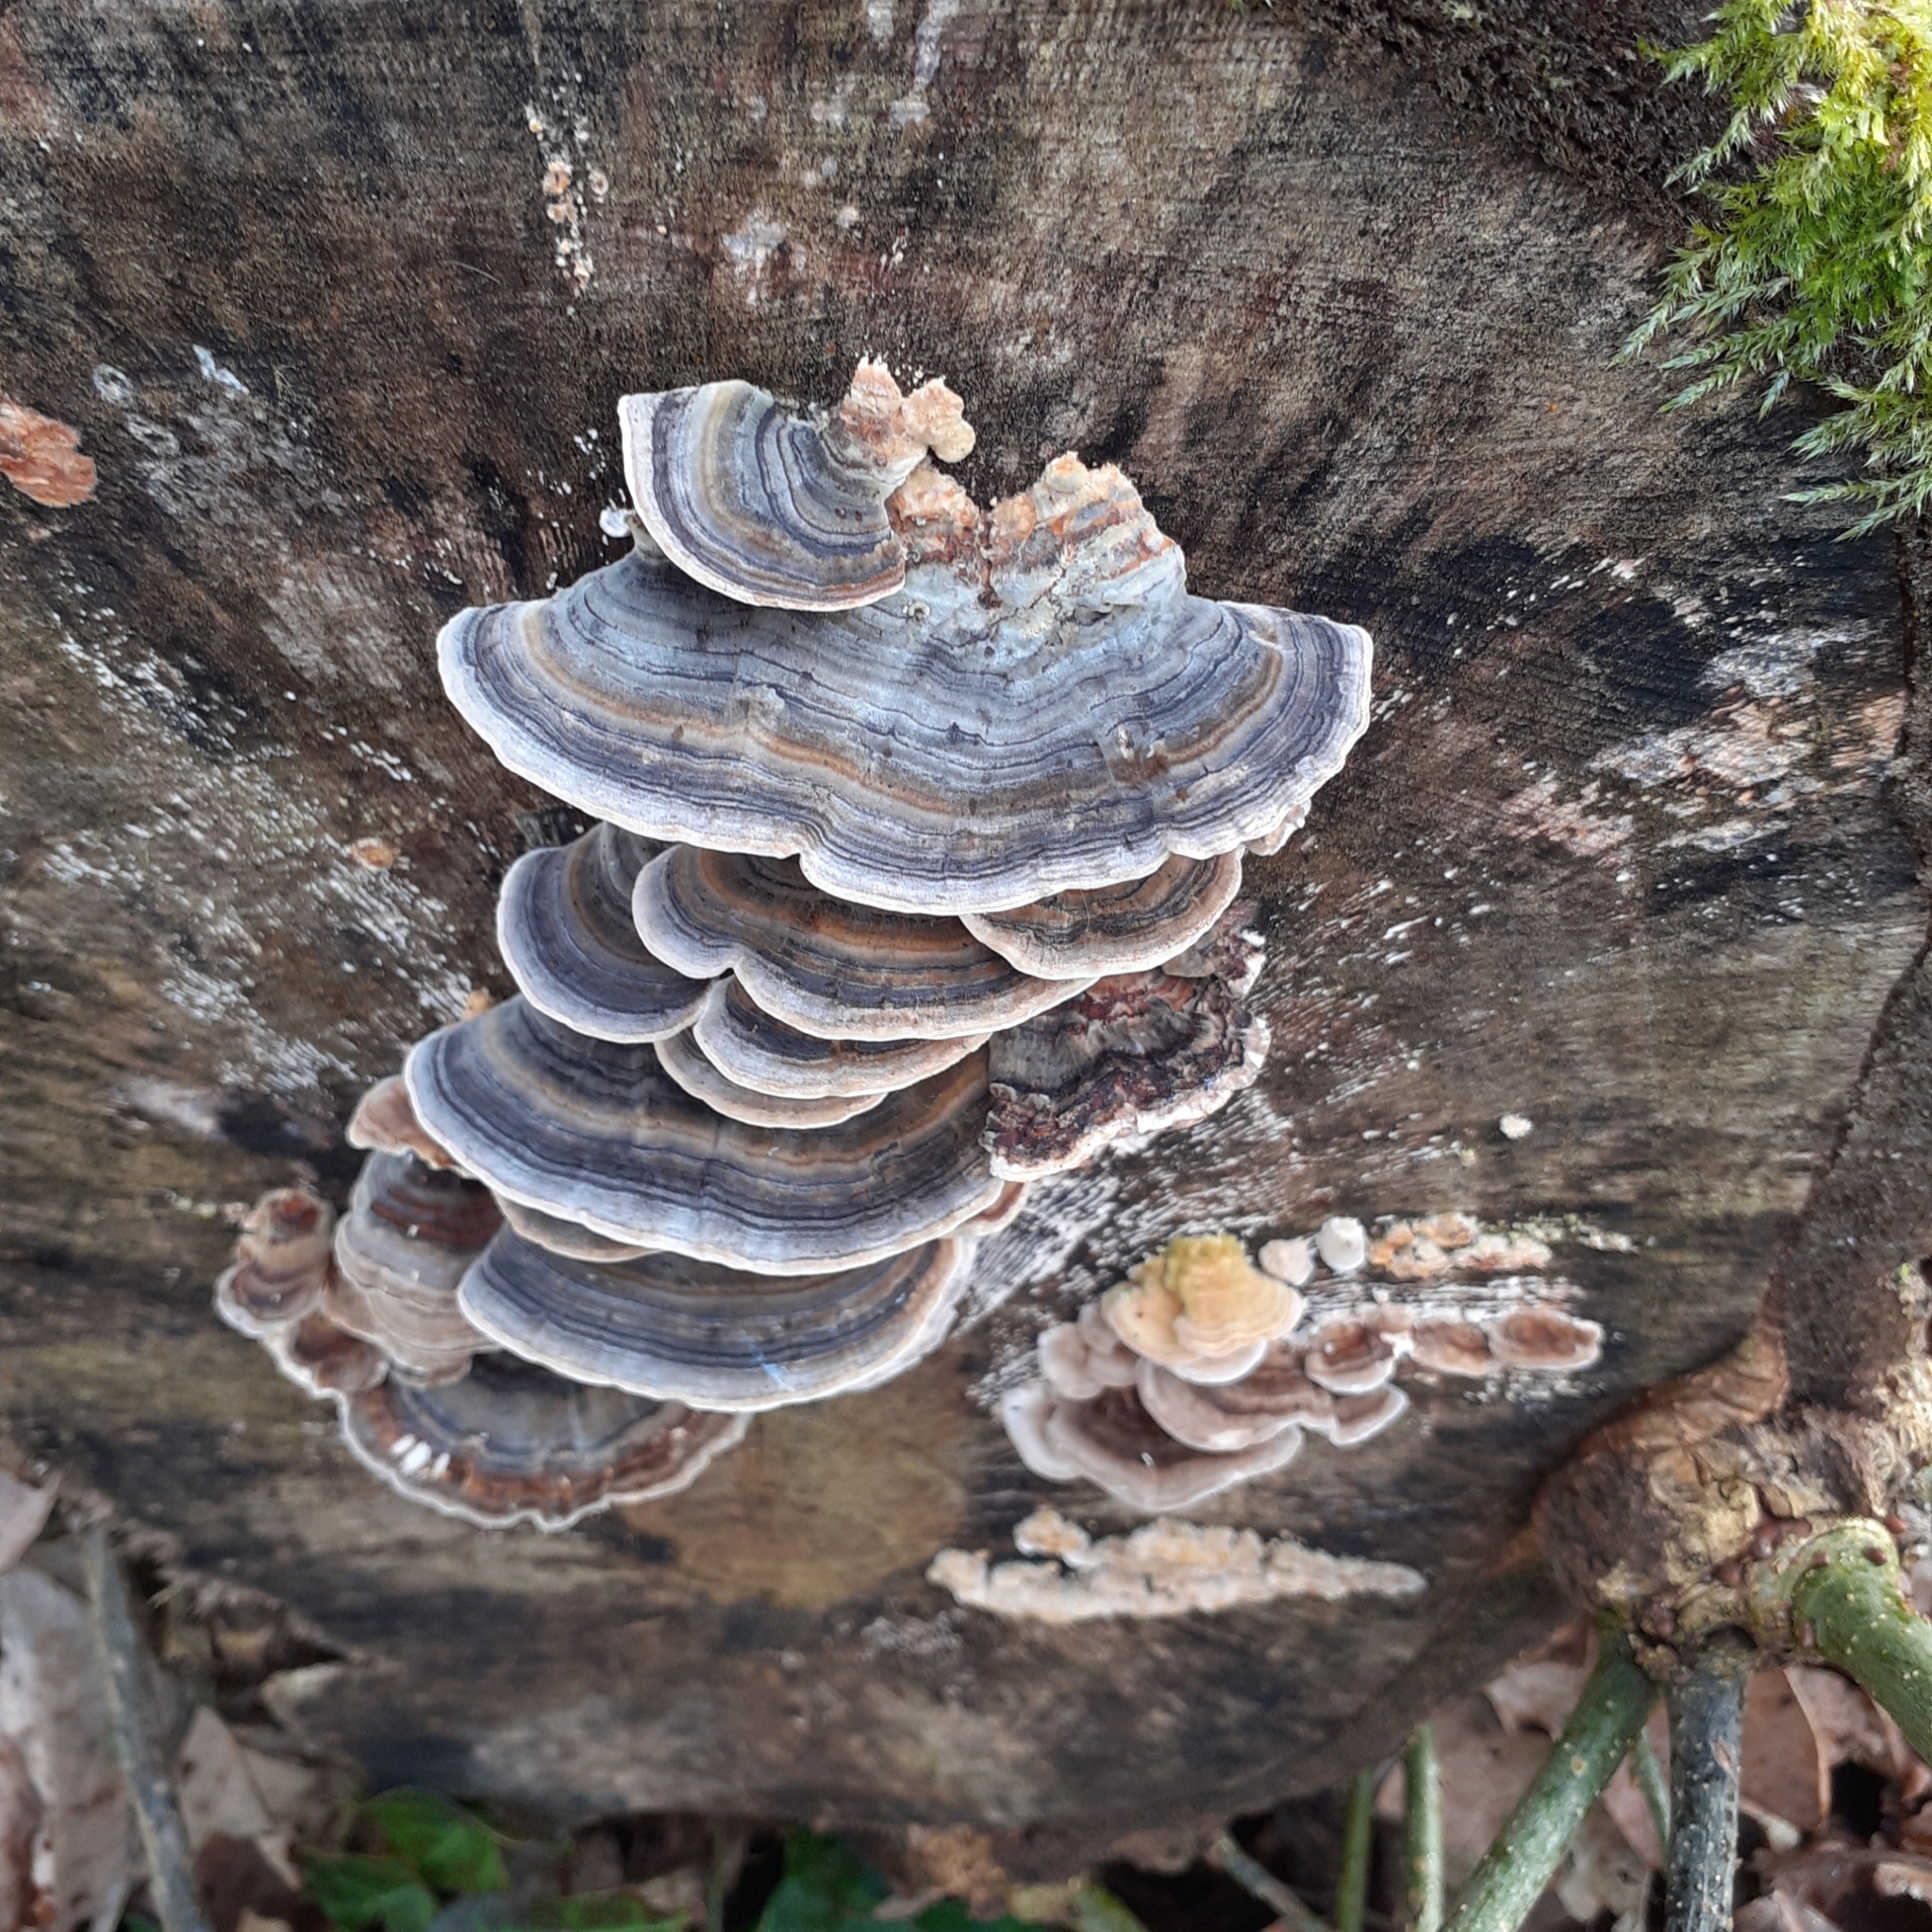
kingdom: Fungi
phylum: Basidiomycota
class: Agaricomycetes
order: Polyporales
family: Polyporaceae
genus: Trametes
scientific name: Trametes versicolor
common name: Turkeytail
